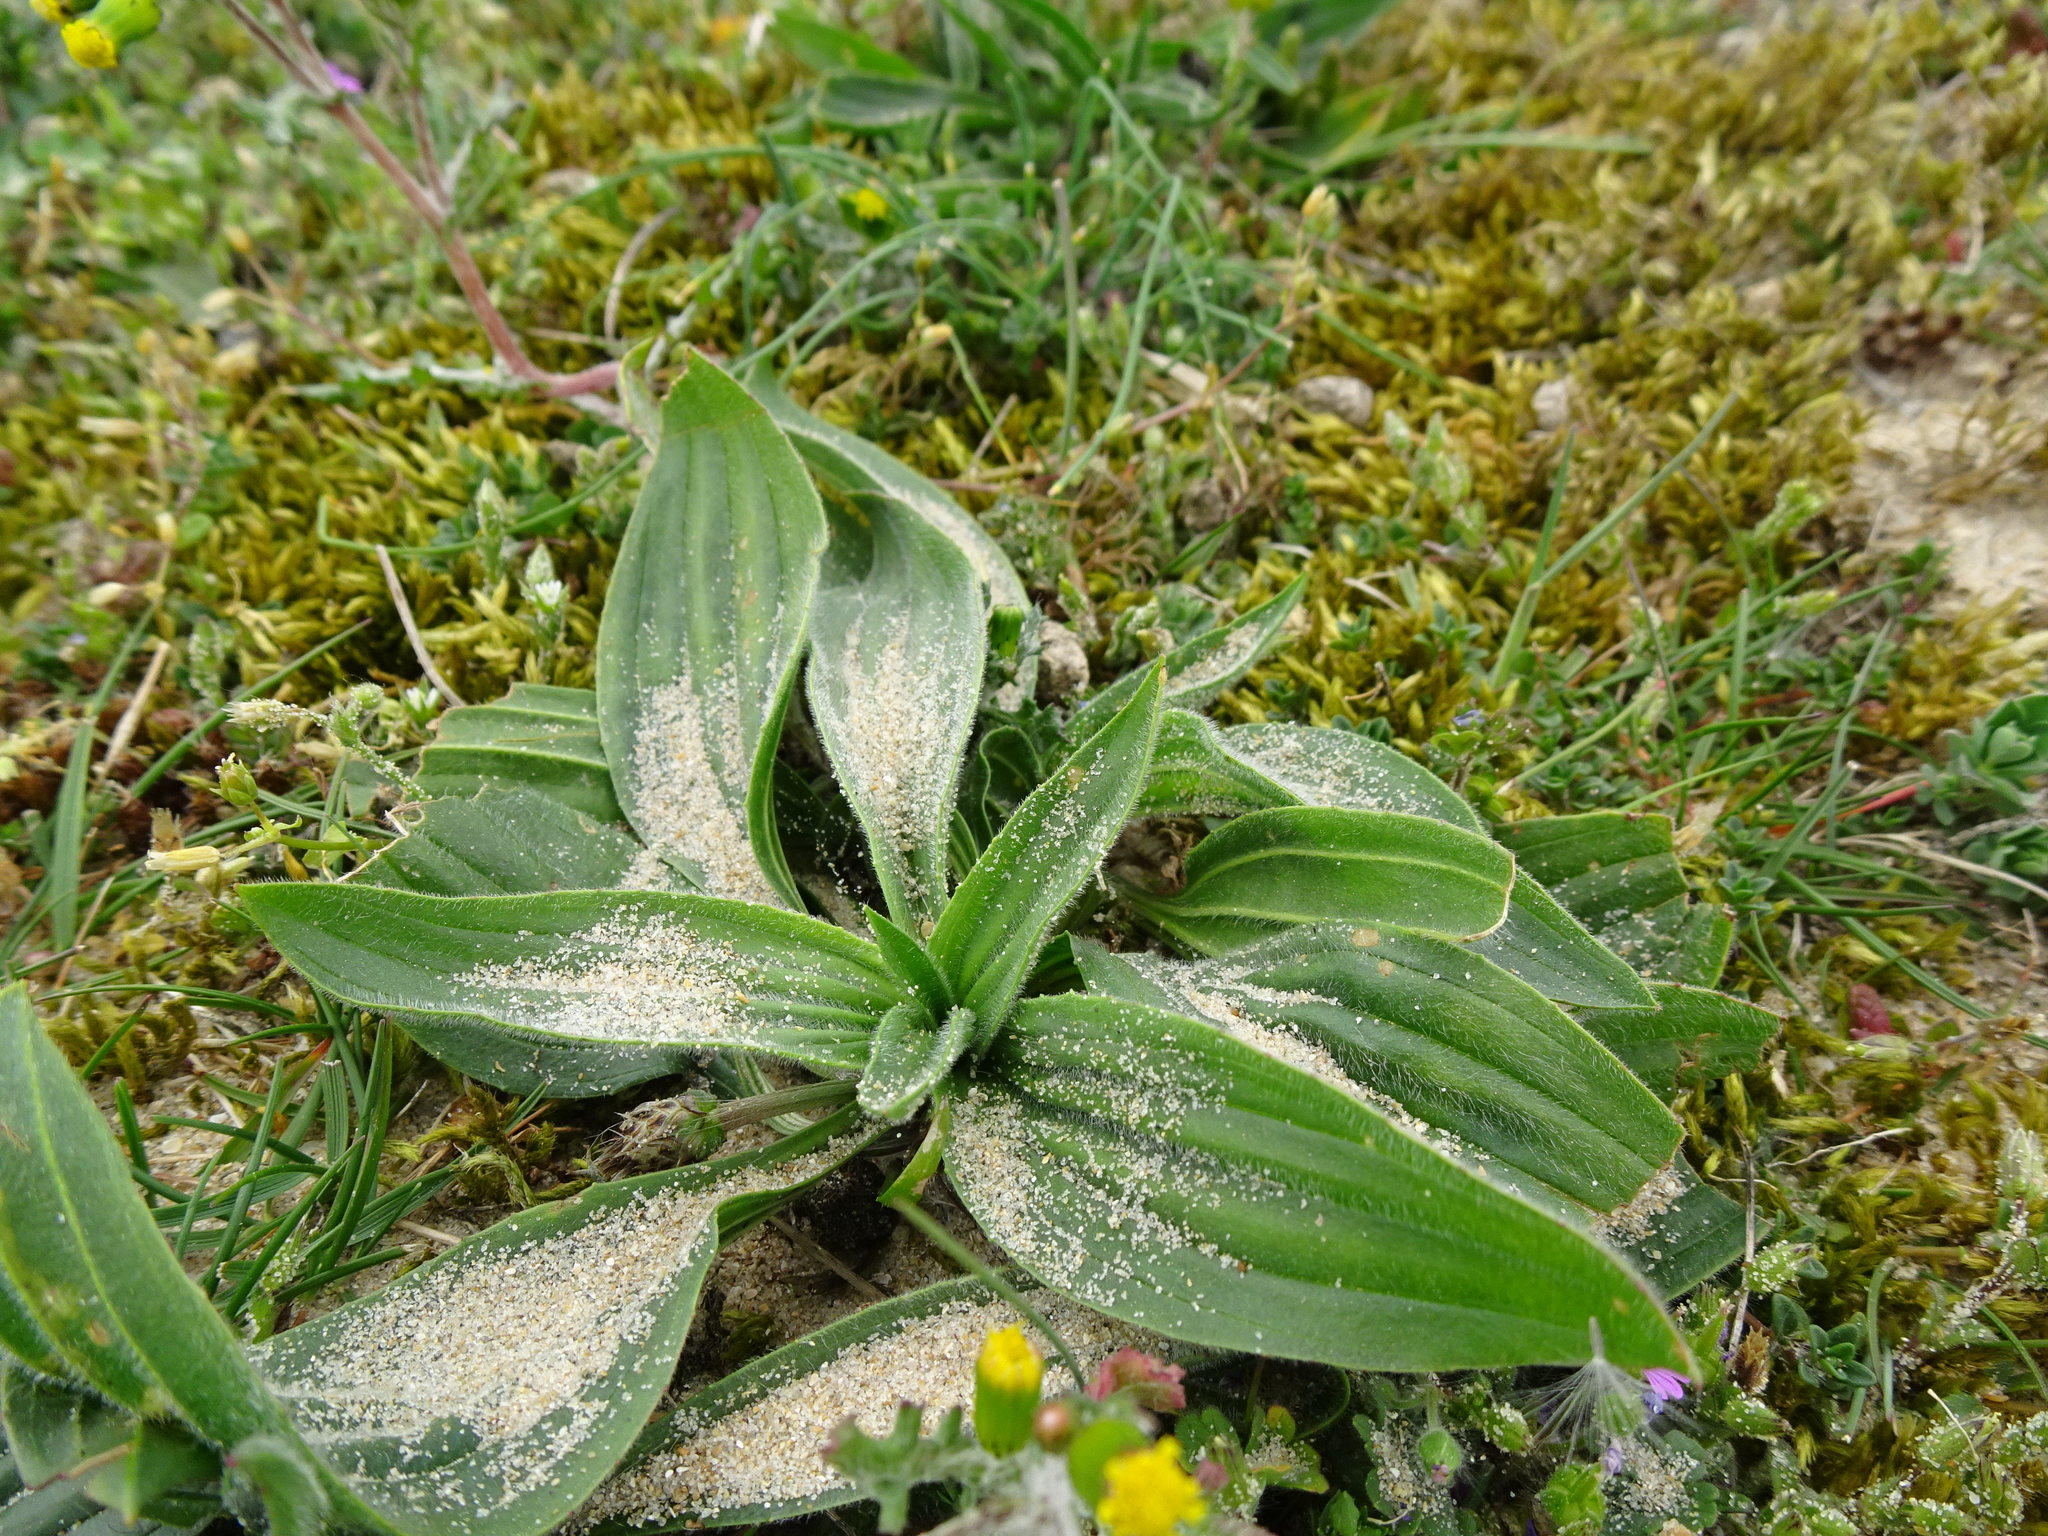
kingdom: Plantae
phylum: Tracheophyta
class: Magnoliopsida
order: Lamiales
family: Plantaginaceae
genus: Plantago
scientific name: Plantago lanceolata
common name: Ribwort plantain
